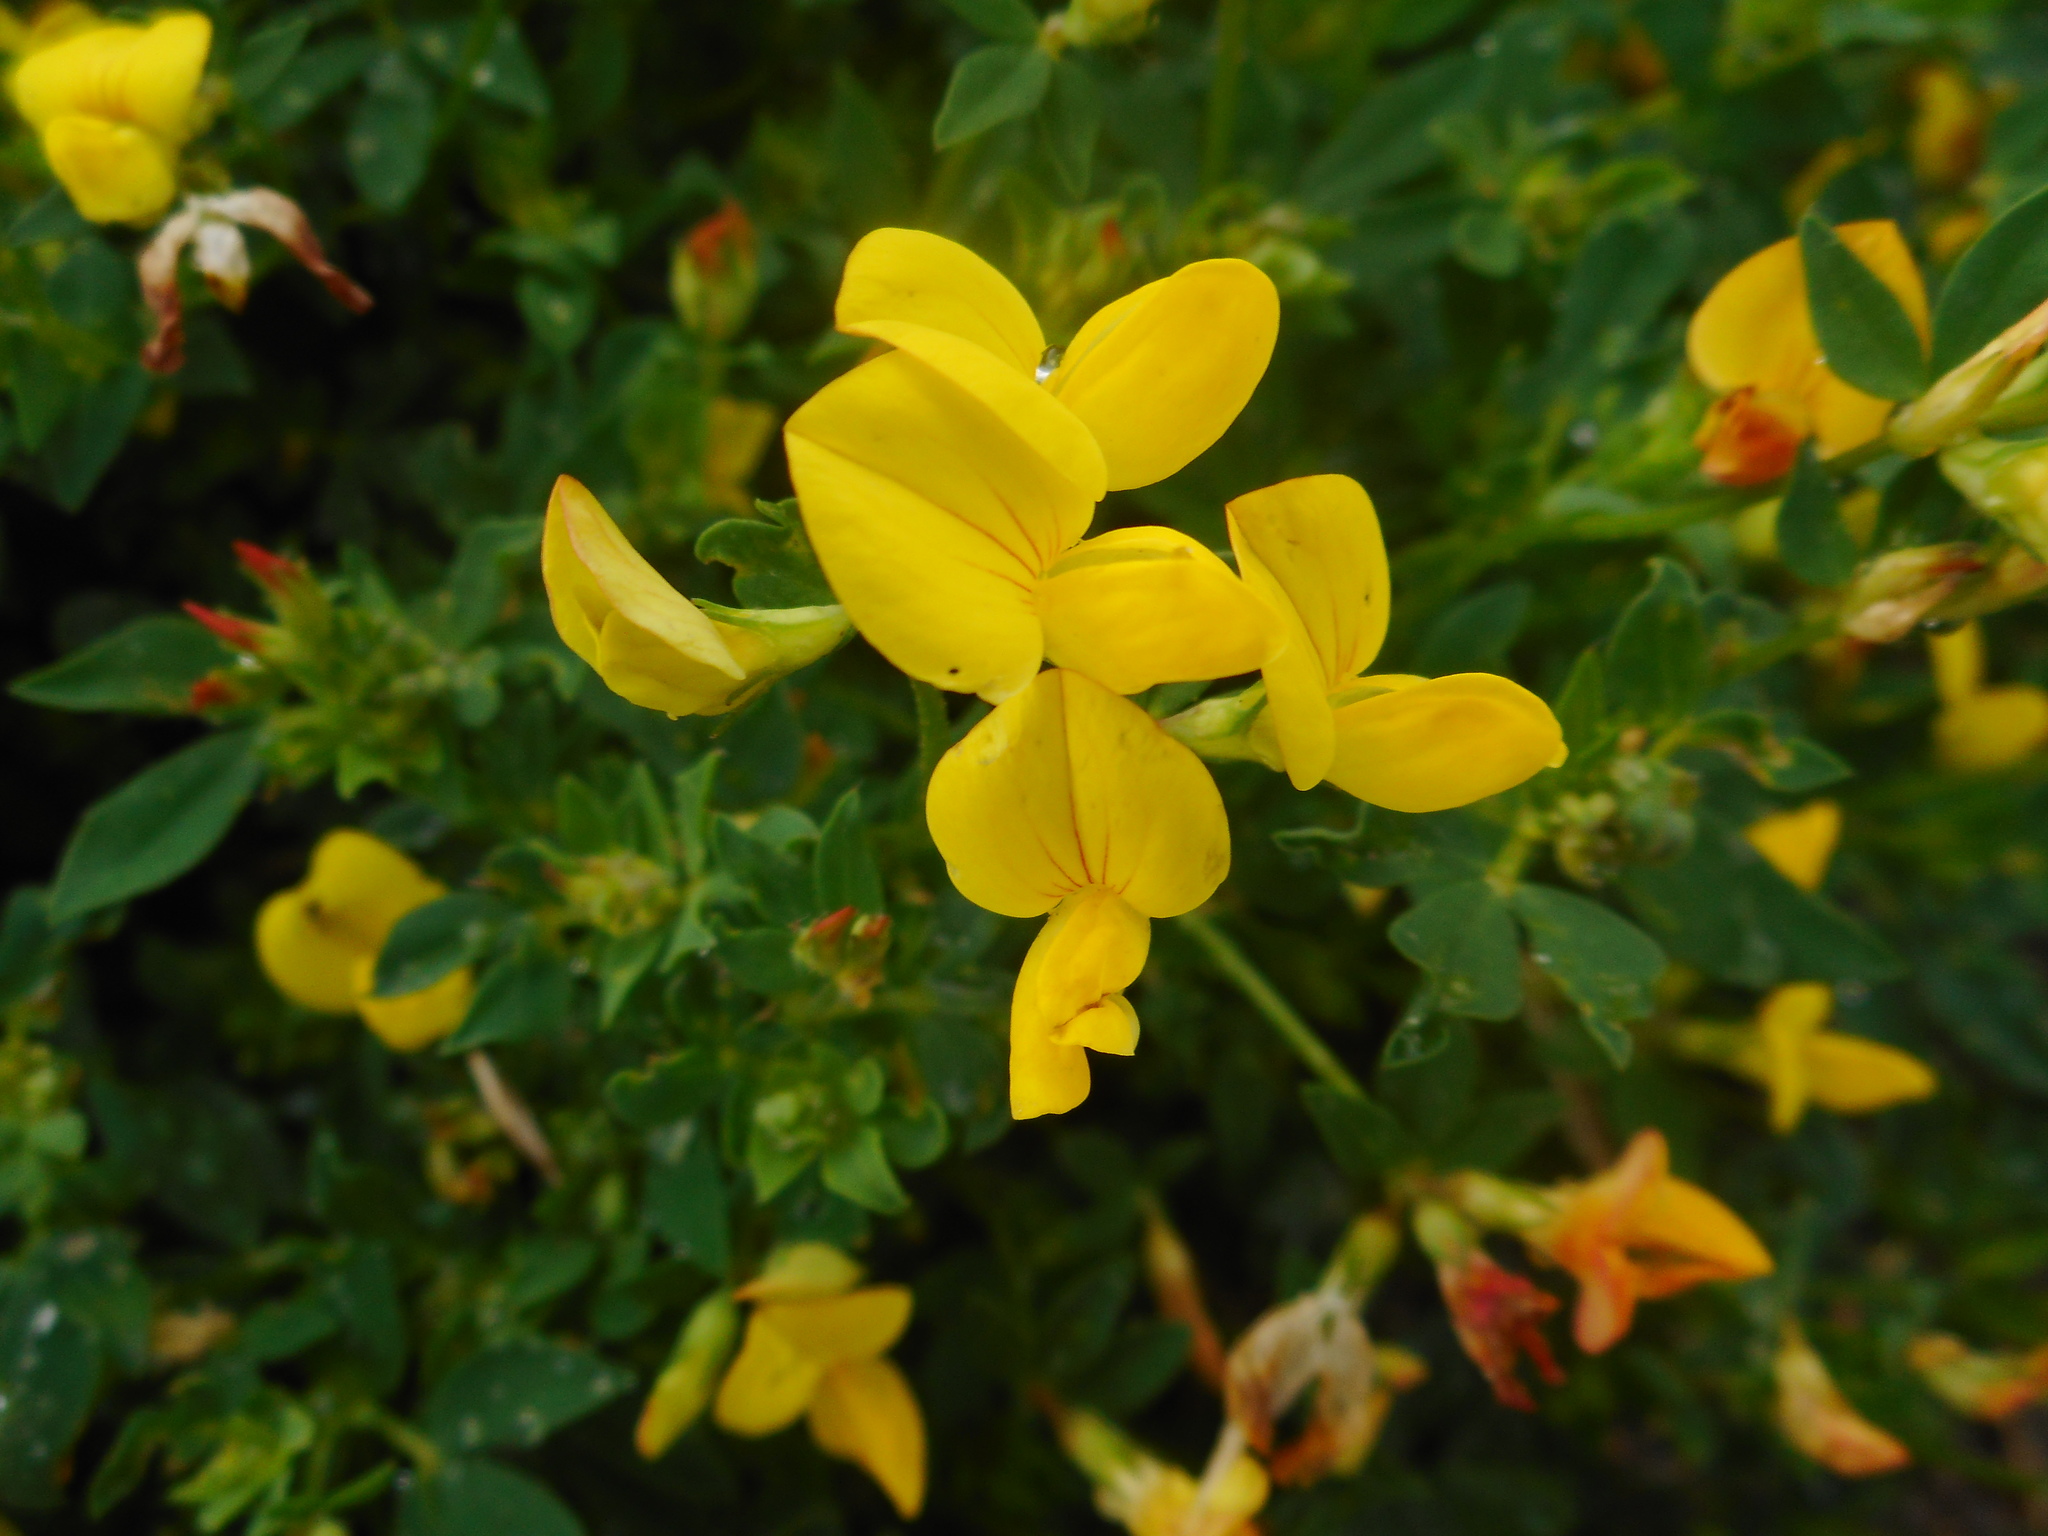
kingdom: Plantae
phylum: Tracheophyta
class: Magnoliopsida
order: Fabales
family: Fabaceae
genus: Lotus
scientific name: Lotus corniculatus
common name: Common bird's-foot-trefoil
